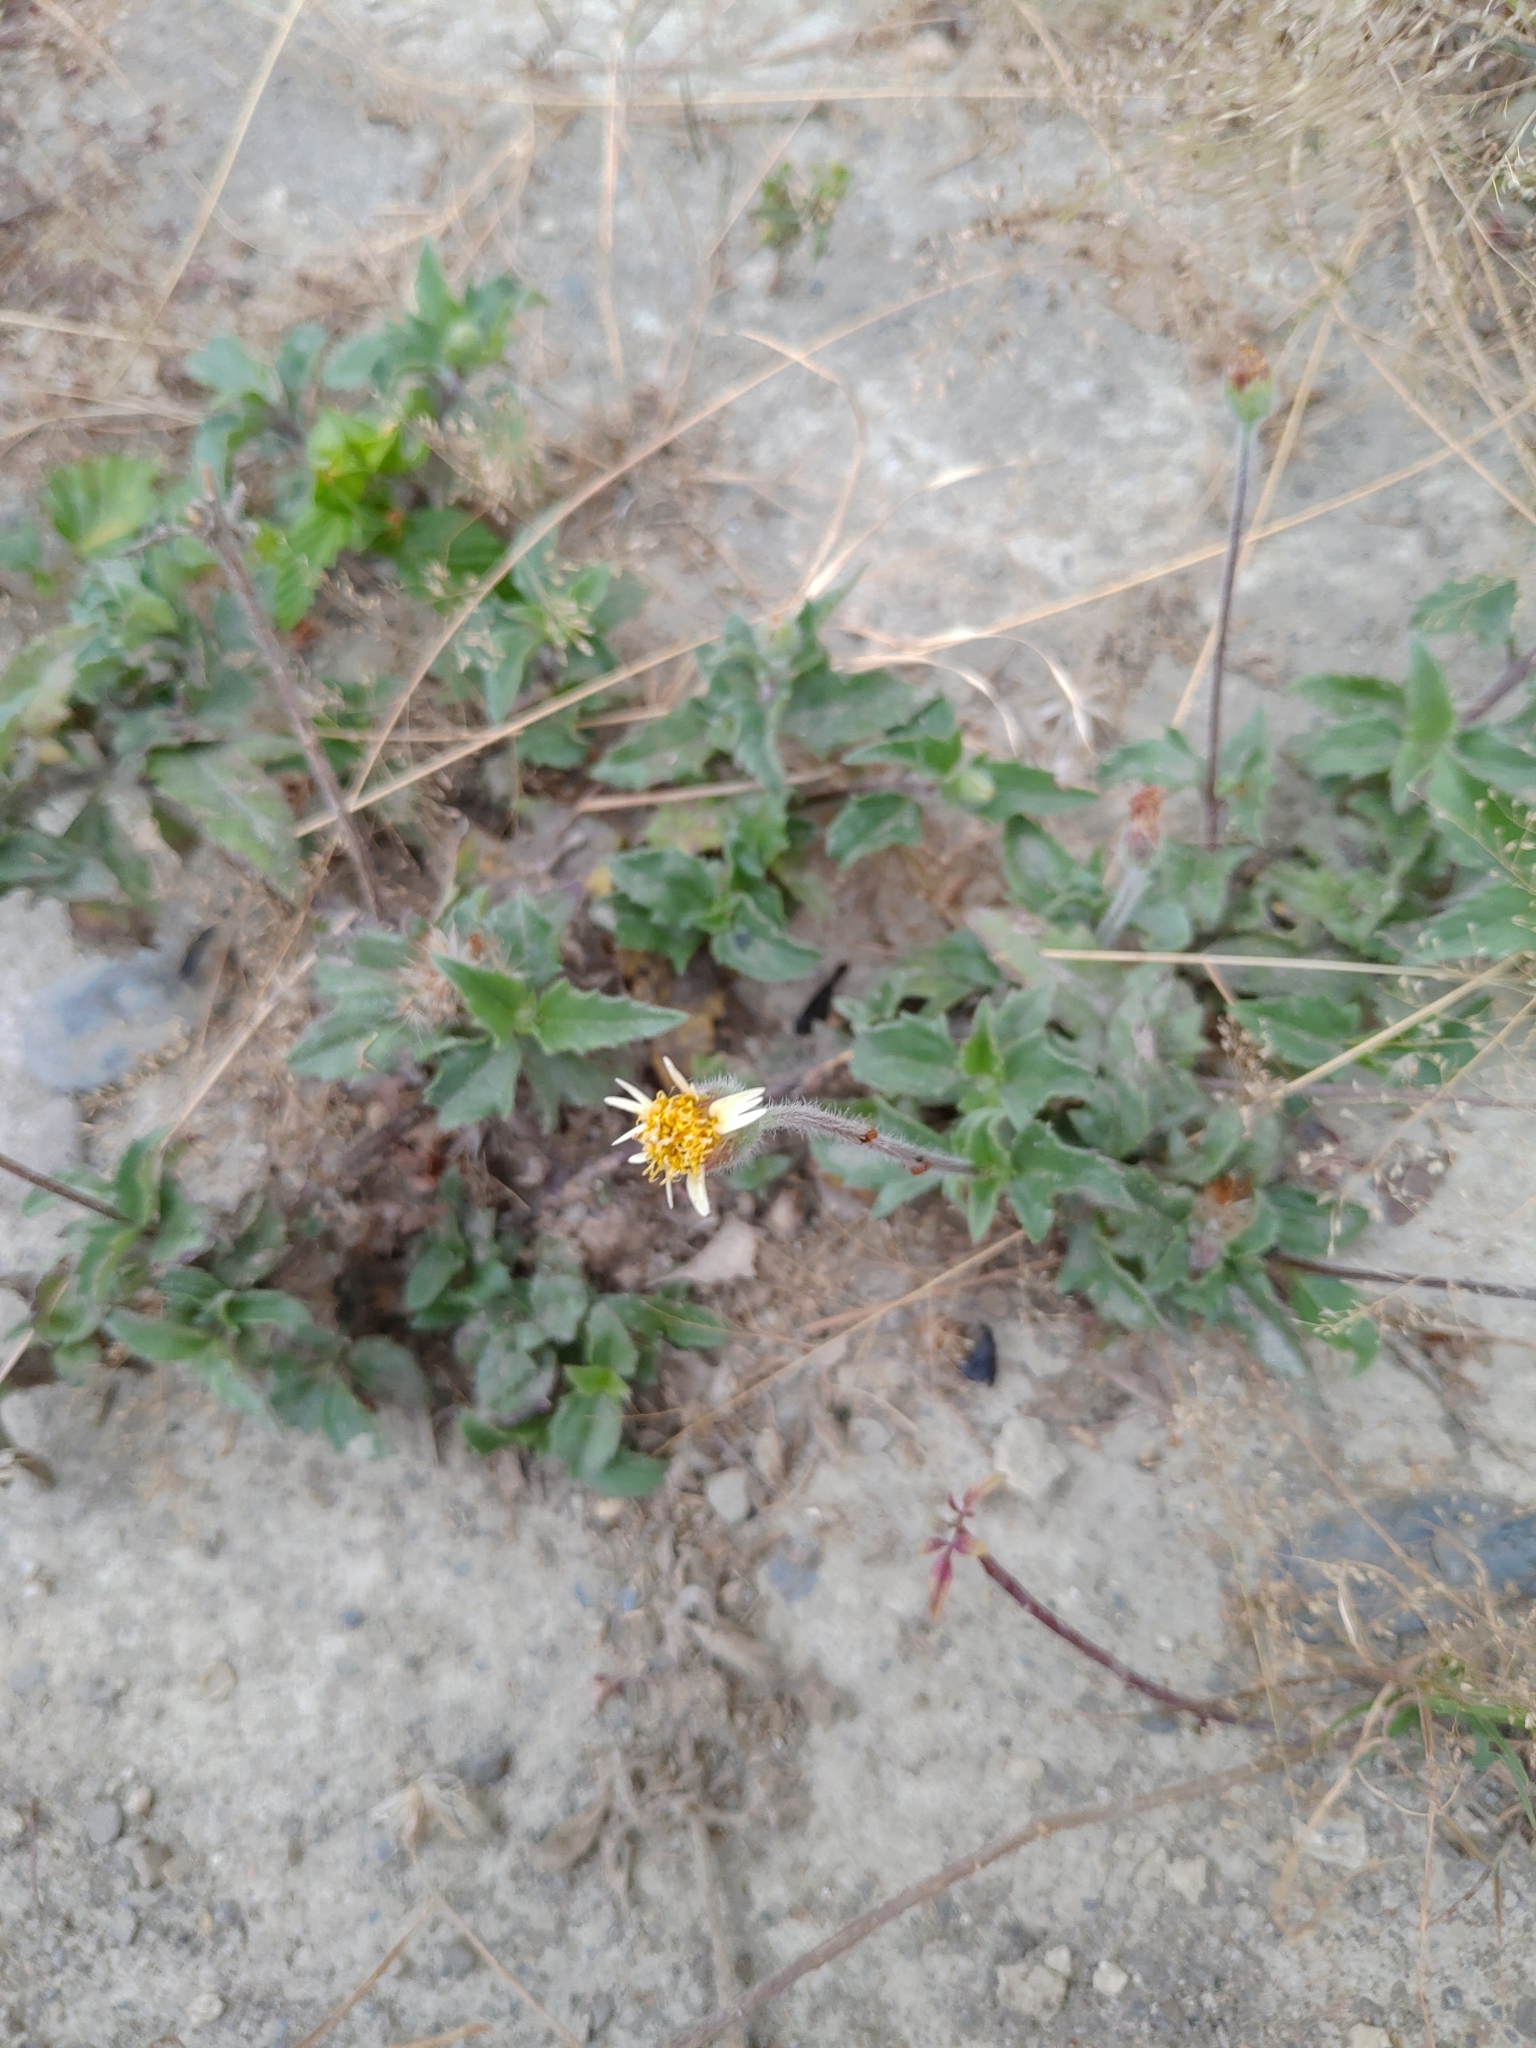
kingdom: Plantae
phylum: Tracheophyta
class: Magnoliopsida
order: Asterales
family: Asteraceae
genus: Tridax
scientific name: Tridax procumbens
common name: Coatbuttons
